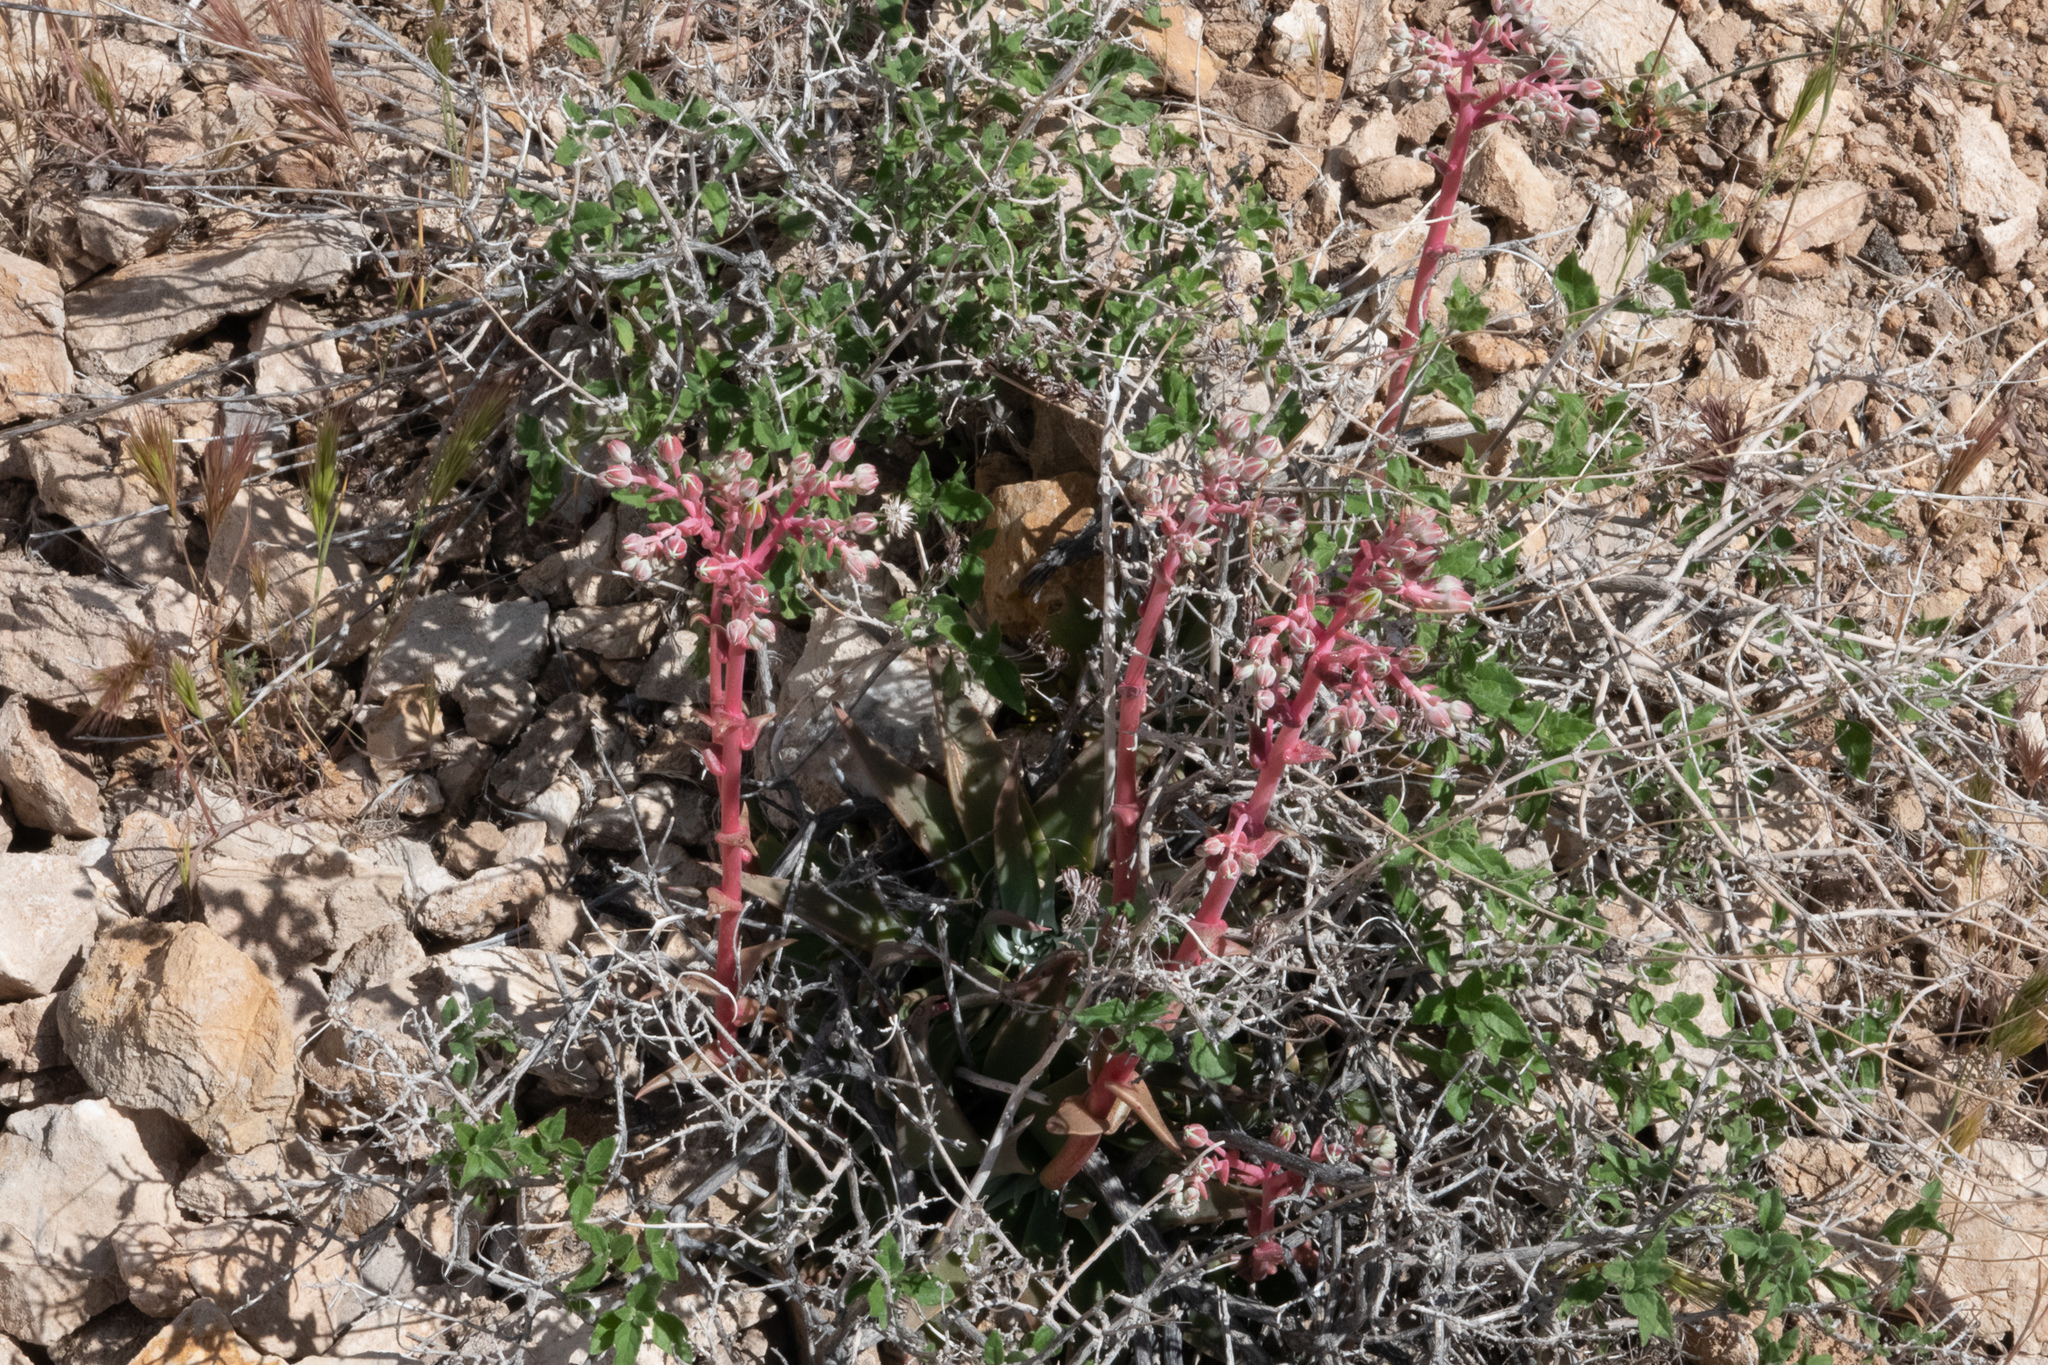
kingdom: Plantae
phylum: Tracheophyta
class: Magnoliopsida
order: Saxifragales
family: Crassulaceae
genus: Dudleya
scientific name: Dudleya saxosa
